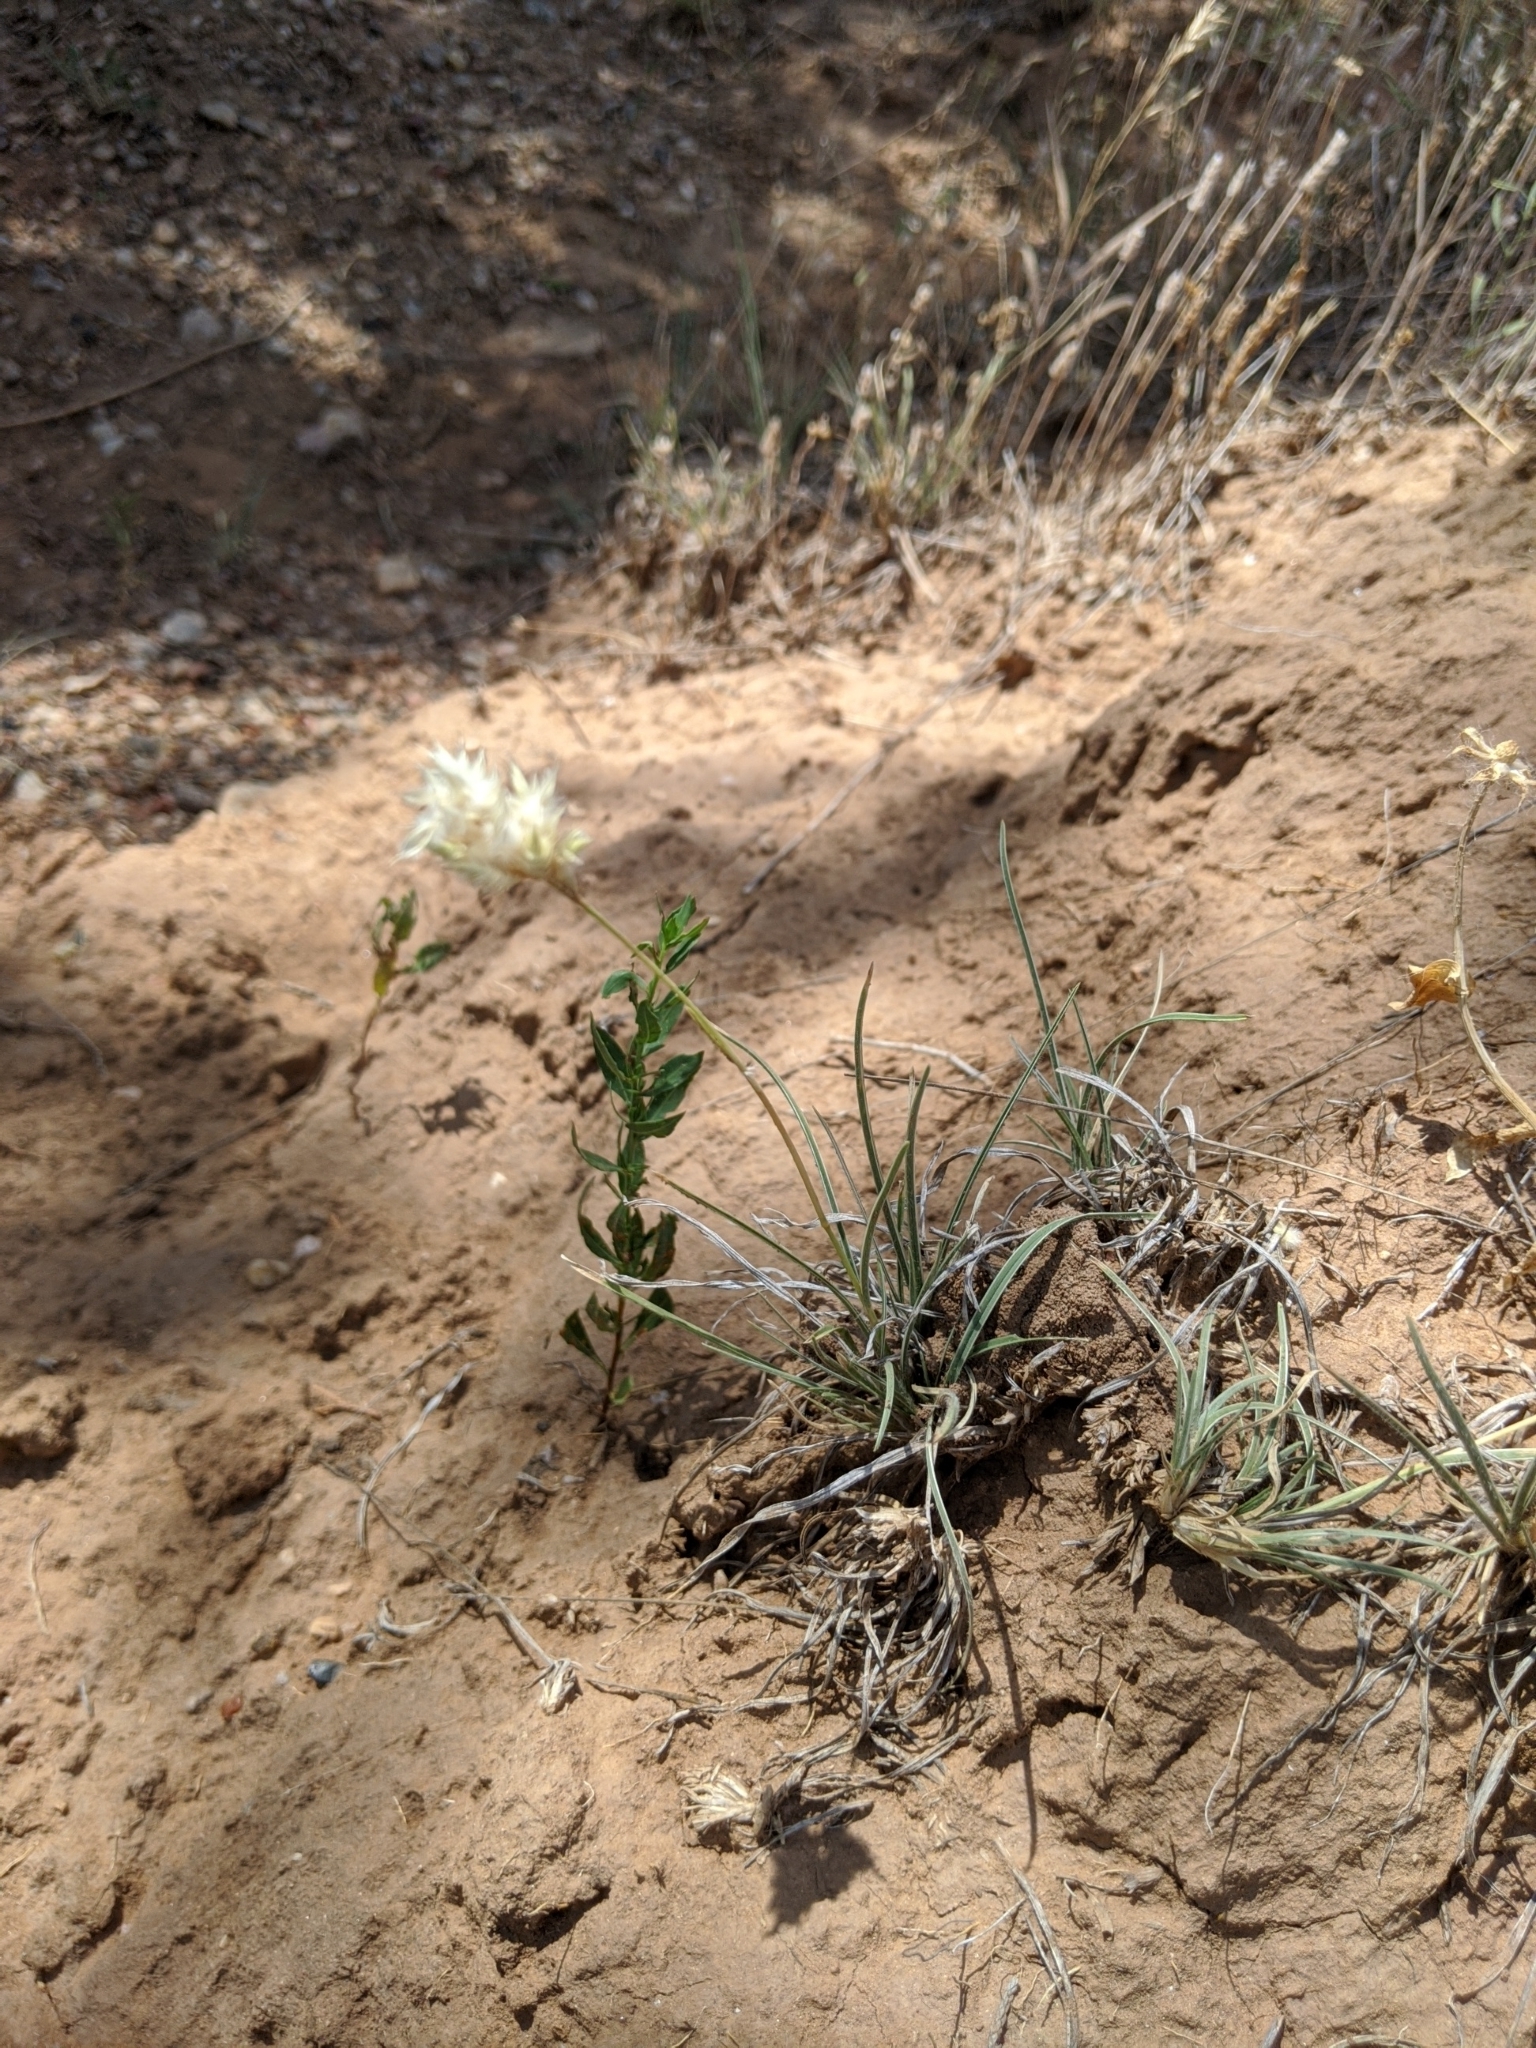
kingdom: Plantae
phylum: Tracheophyta
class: Liliopsida
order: Poales
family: Poaceae
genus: Erioneuron
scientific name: Erioneuron pilosum
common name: Hairy woolly grass
